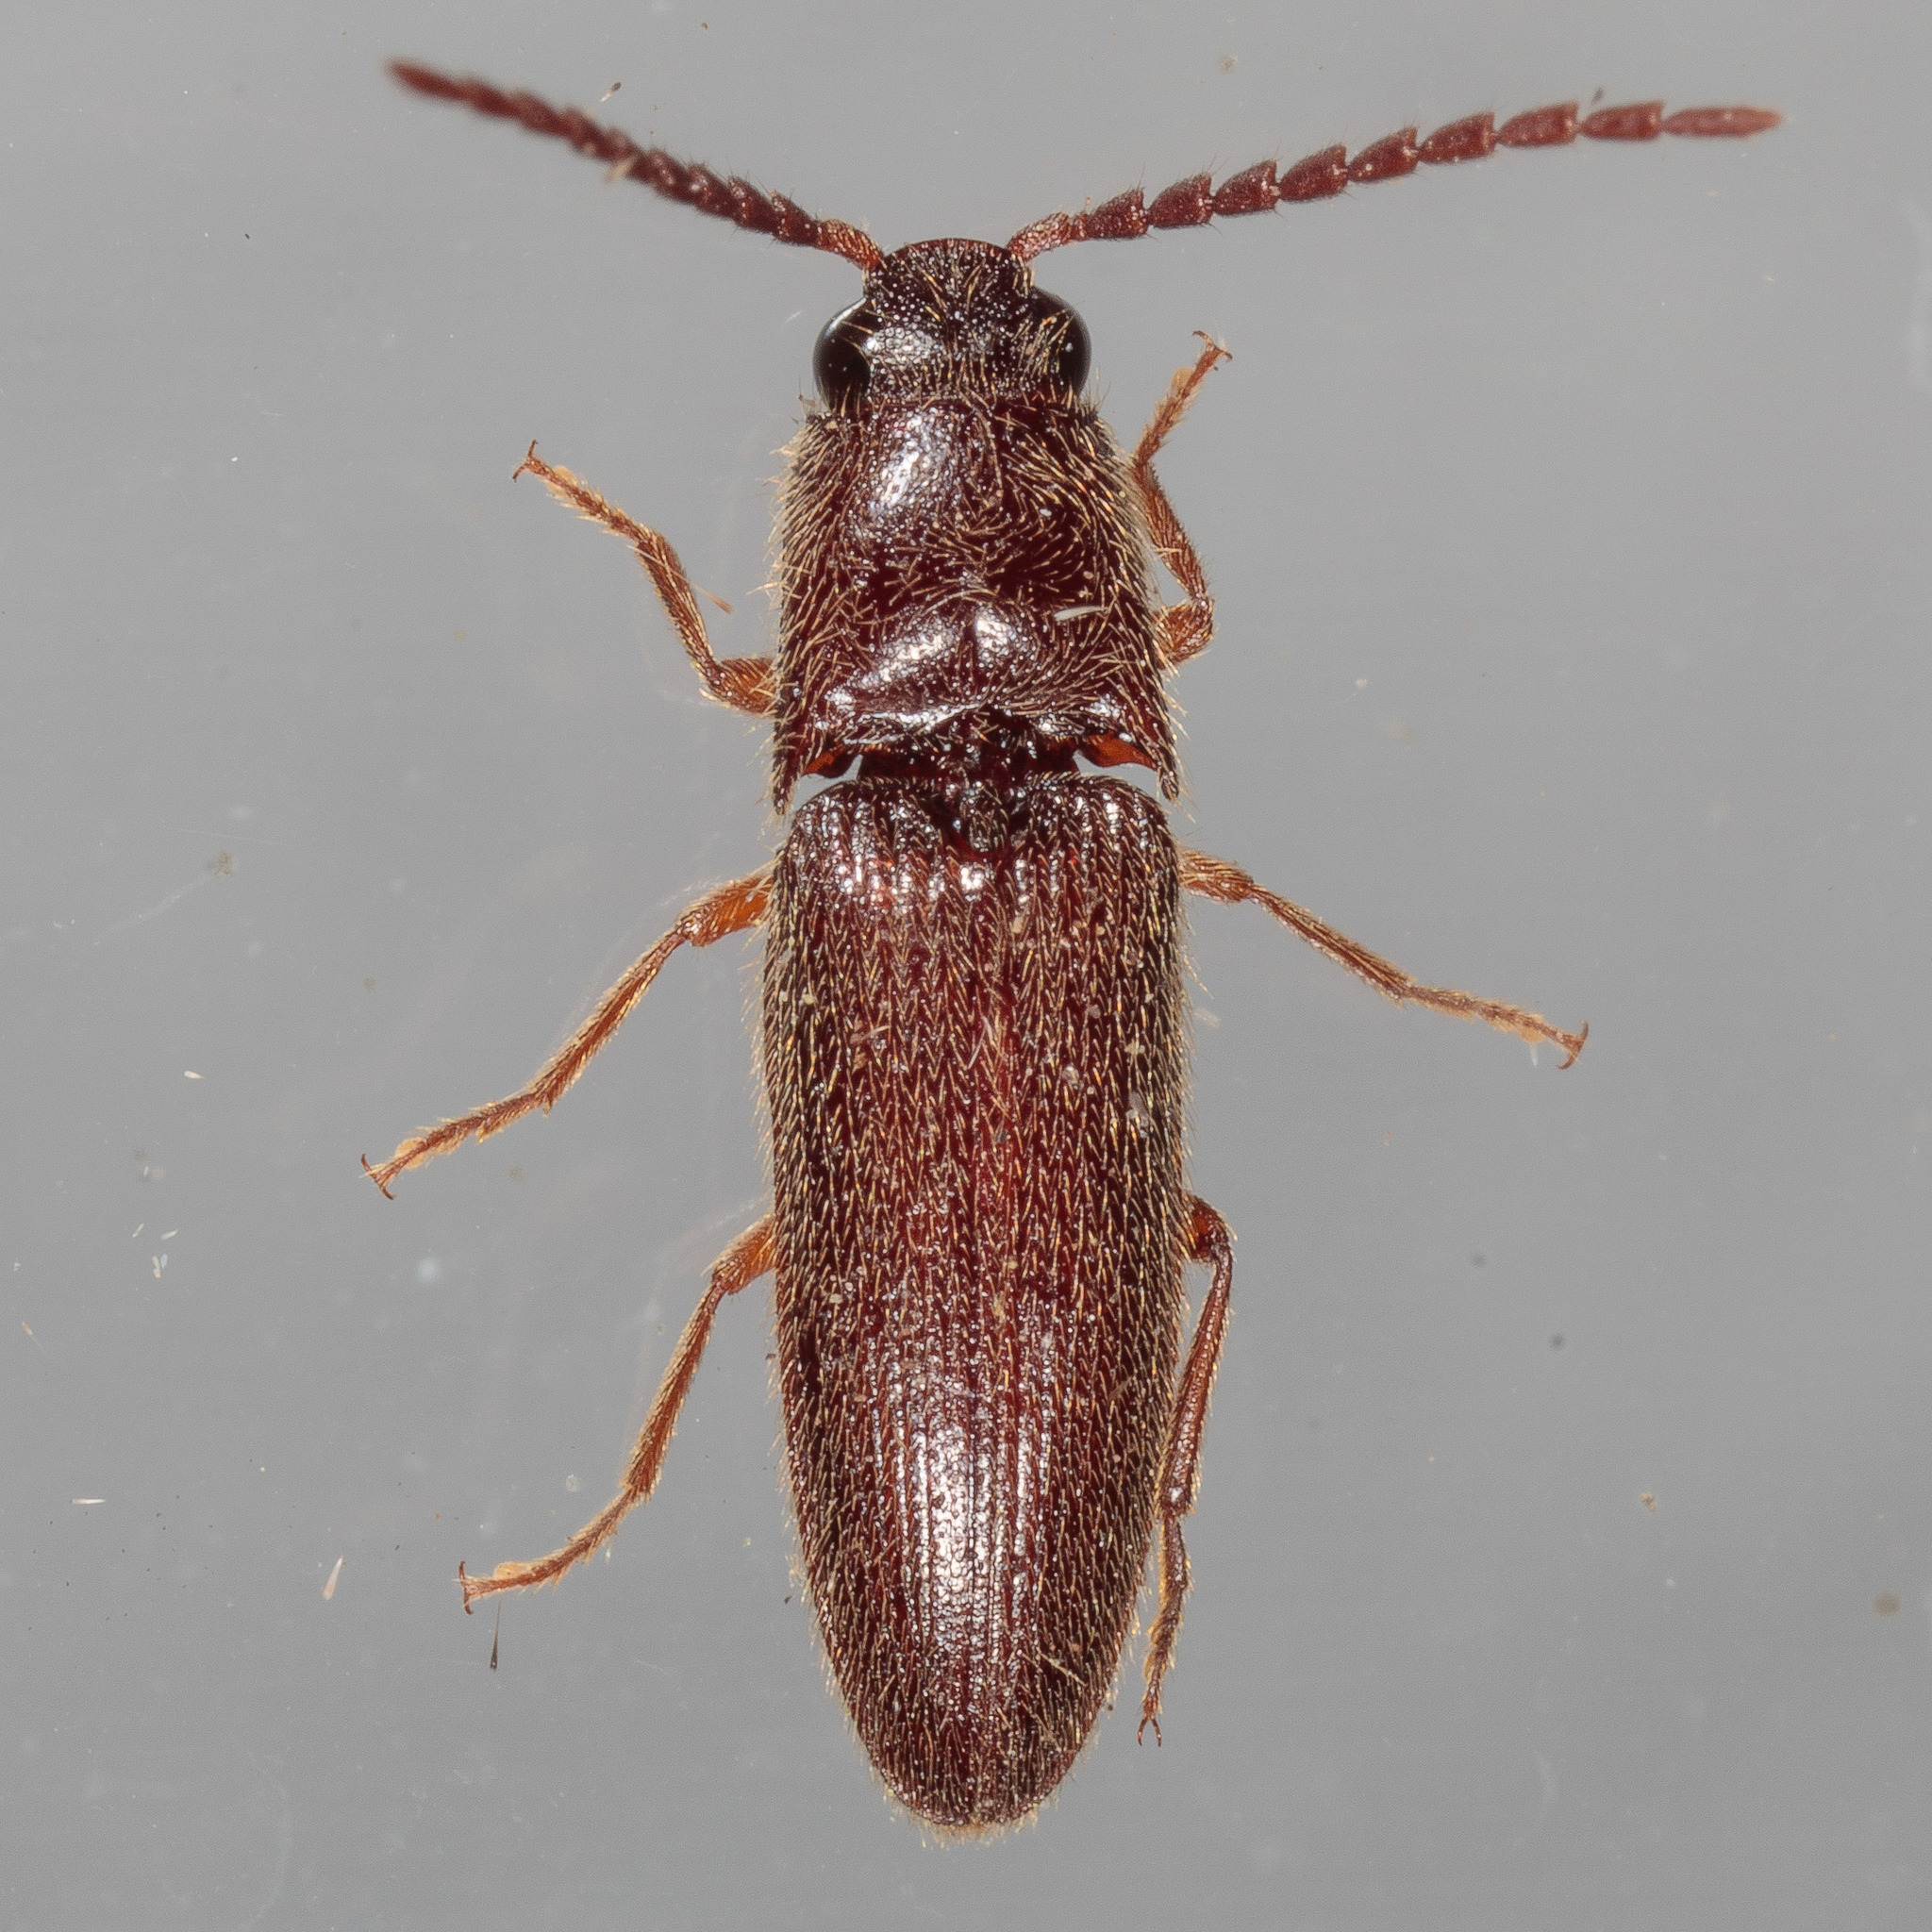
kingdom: Animalia
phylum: Arthropoda
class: Insecta
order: Coleoptera
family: Elateridae
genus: Dipropus
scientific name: Dipropus
